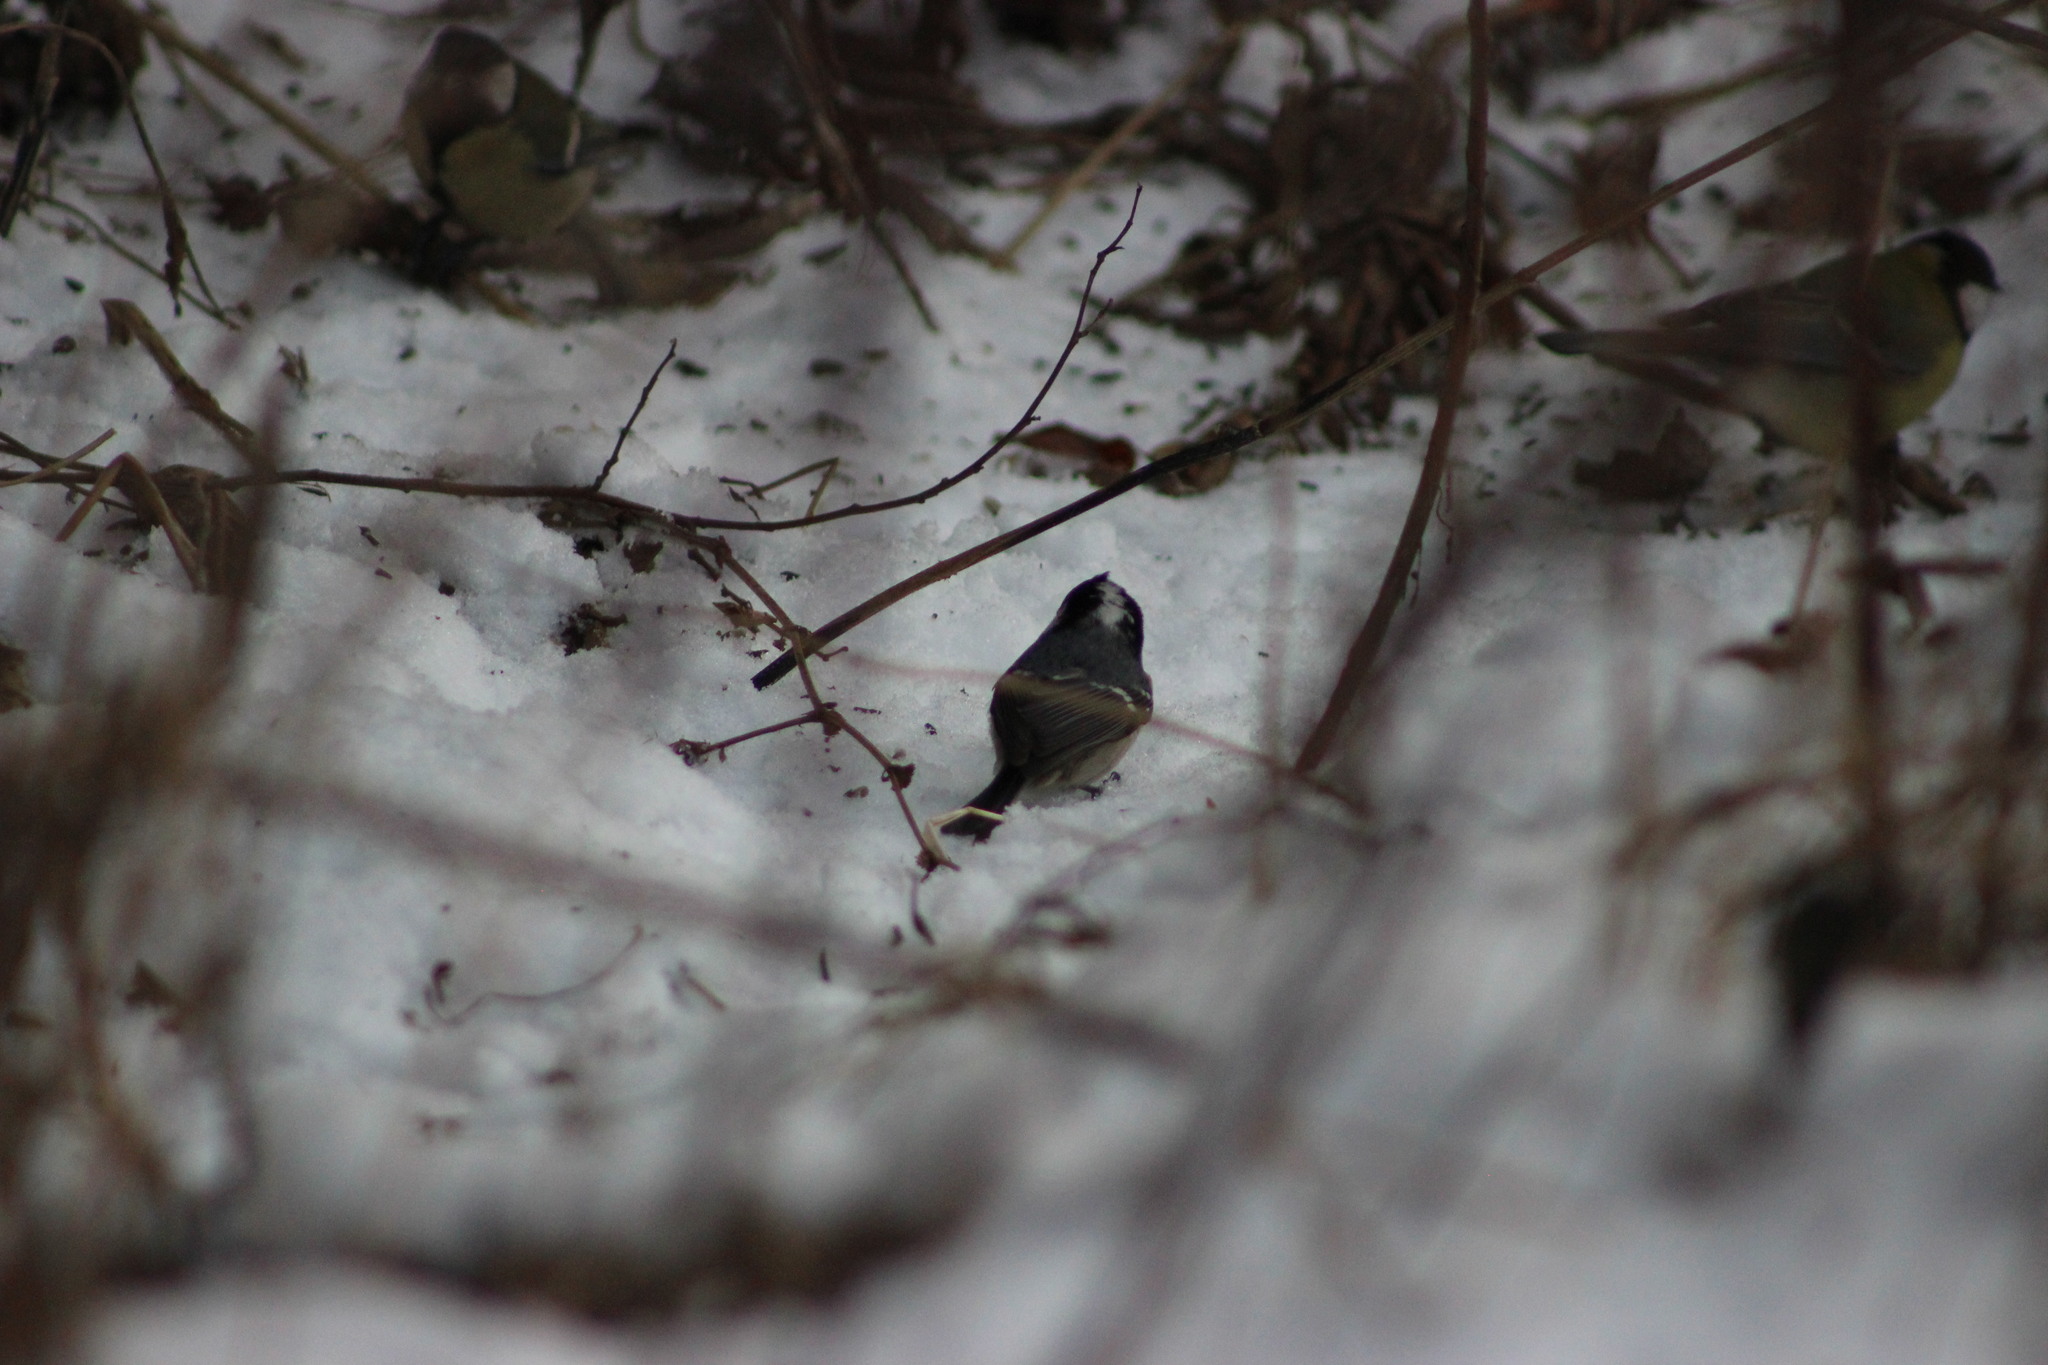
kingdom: Animalia
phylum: Chordata
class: Aves
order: Passeriformes
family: Paridae
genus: Periparus
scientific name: Periparus ater
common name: Coal tit
